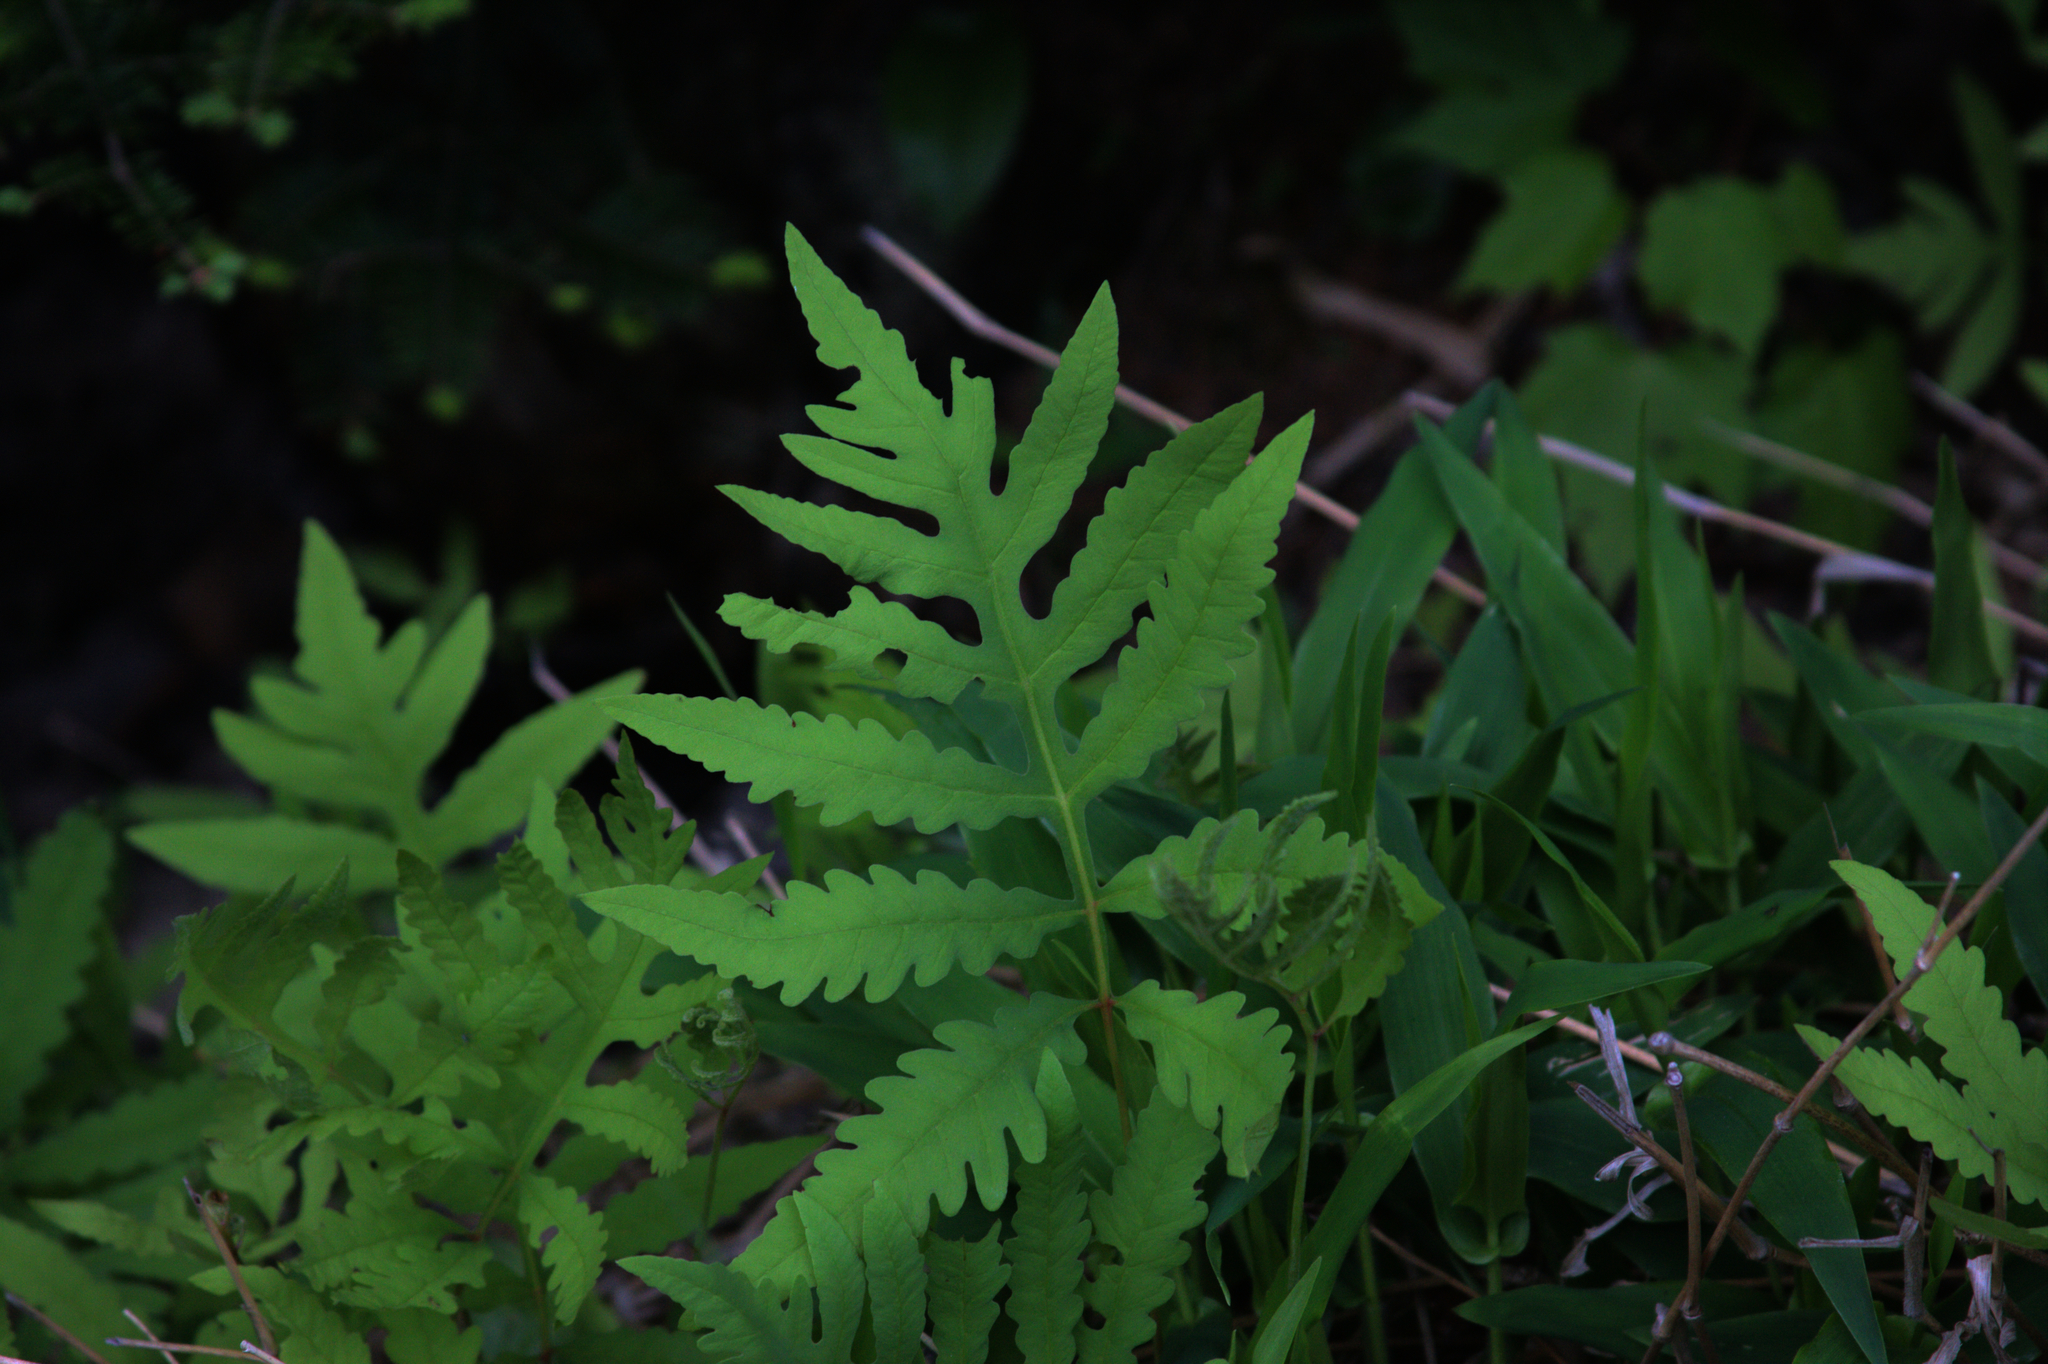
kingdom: Plantae
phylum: Tracheophyta
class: Polypodiopsida
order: Polypodiales
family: Onocleaceae
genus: Onoclea
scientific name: Onoclea sensibilis
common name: Sensitive fern
